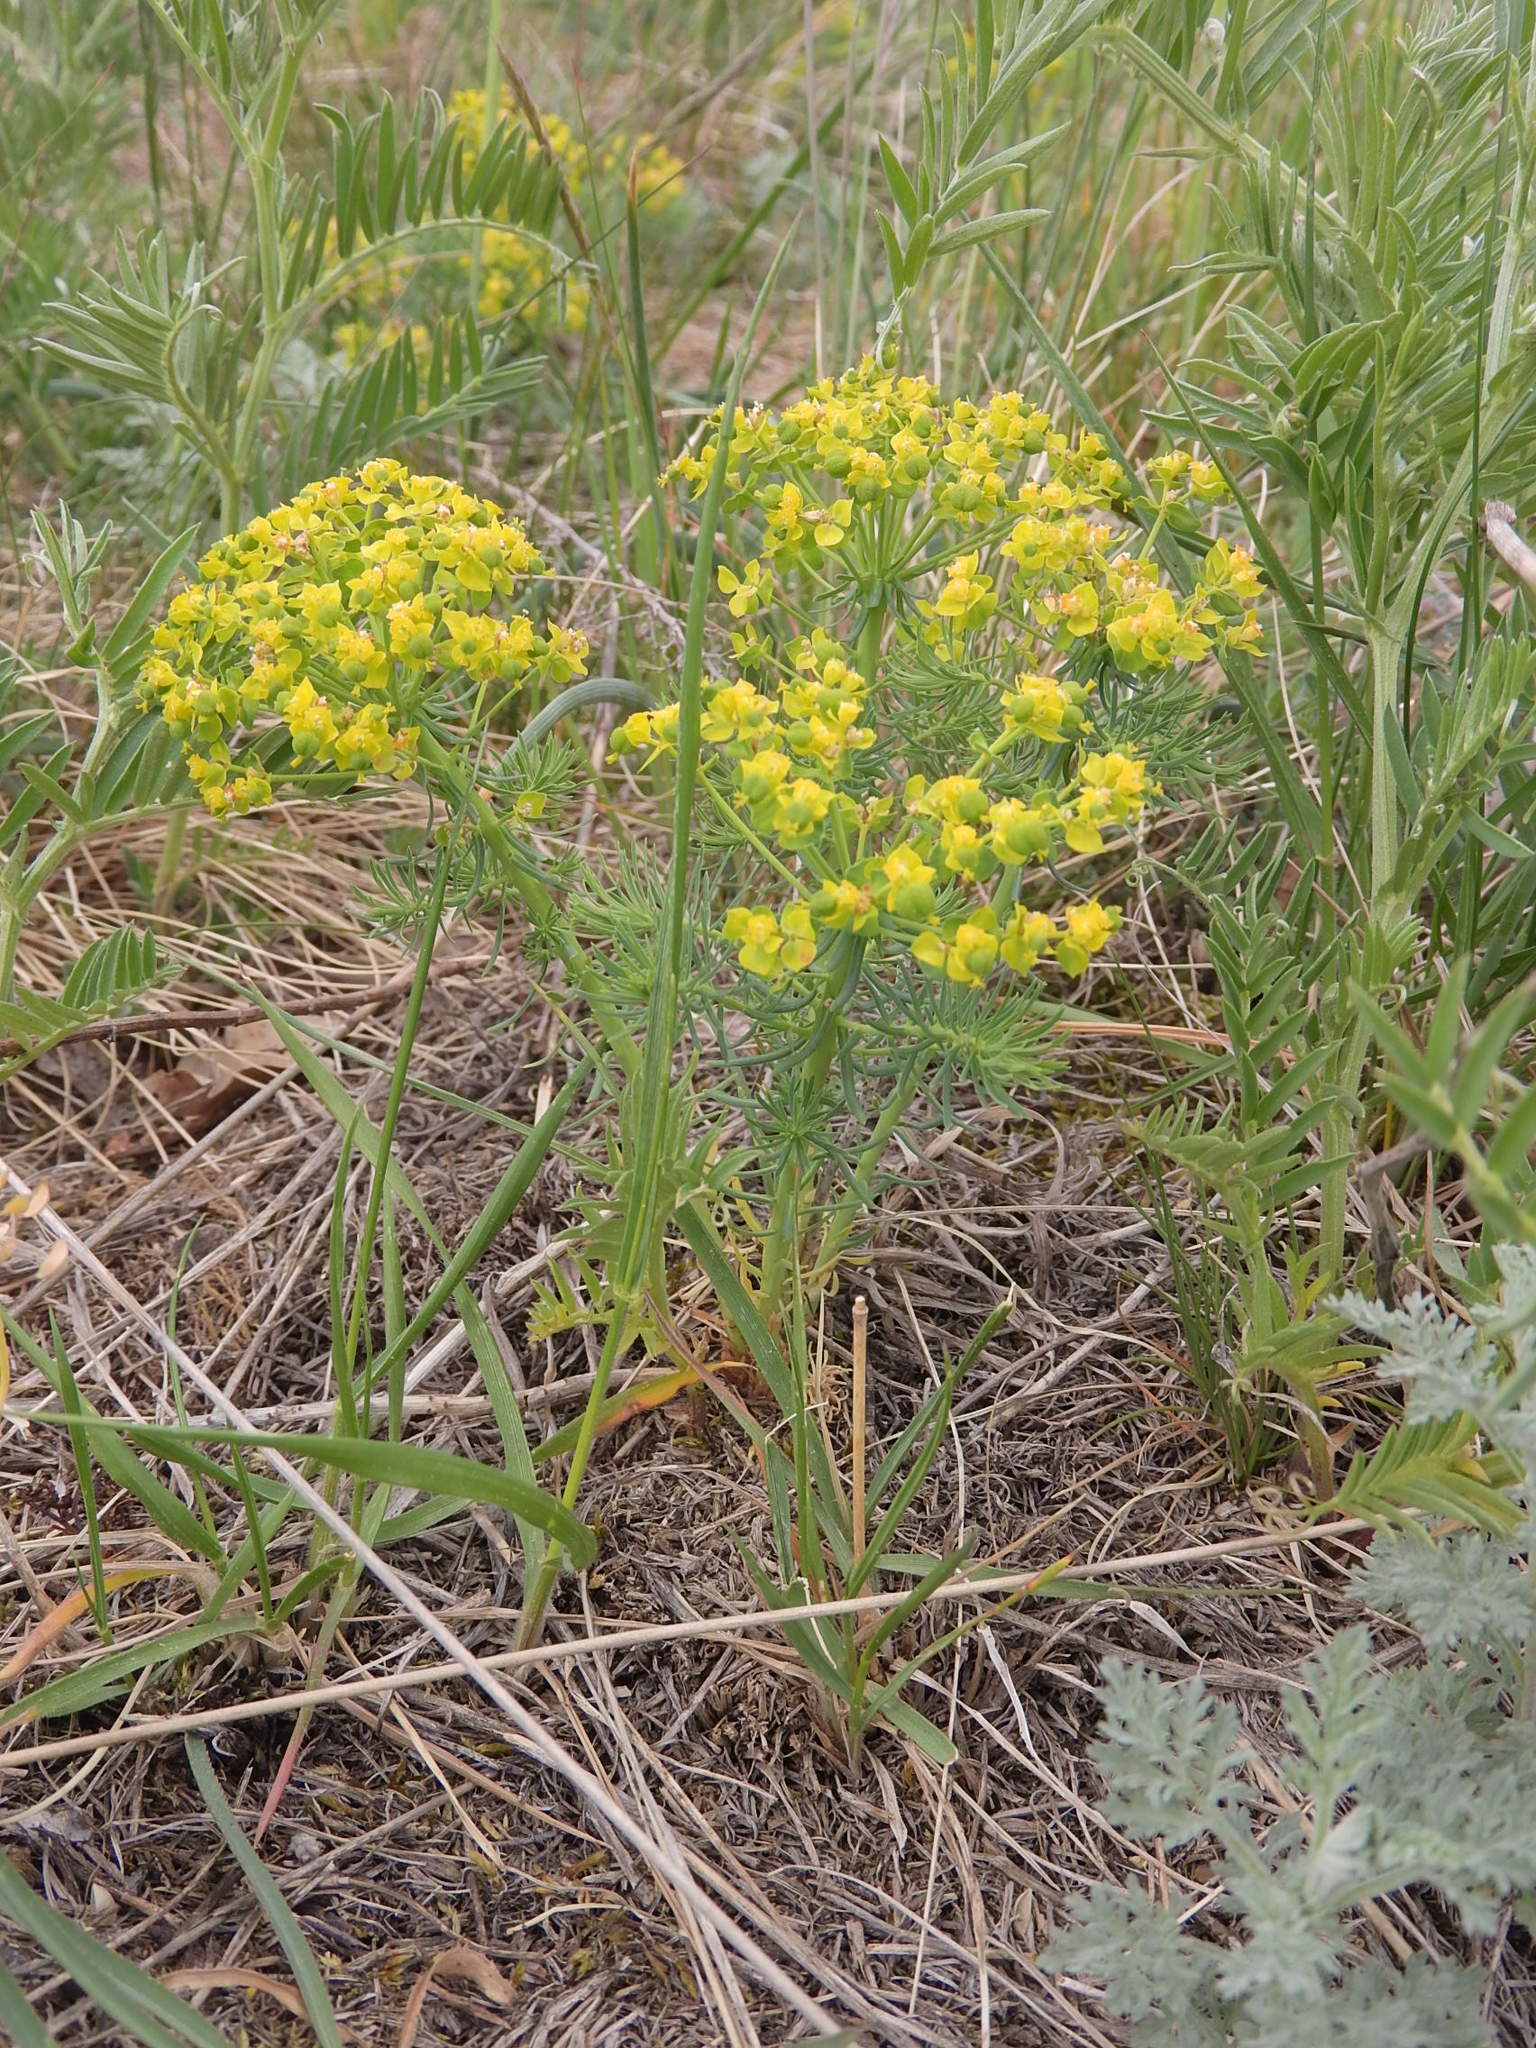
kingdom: Plantae
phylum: Tracheophyta
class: Magnoliopsida
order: Malpighiales
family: Euphorbiaceae
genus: Euphorbia
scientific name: Euphorbia cyparissias
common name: Cypress spurge
